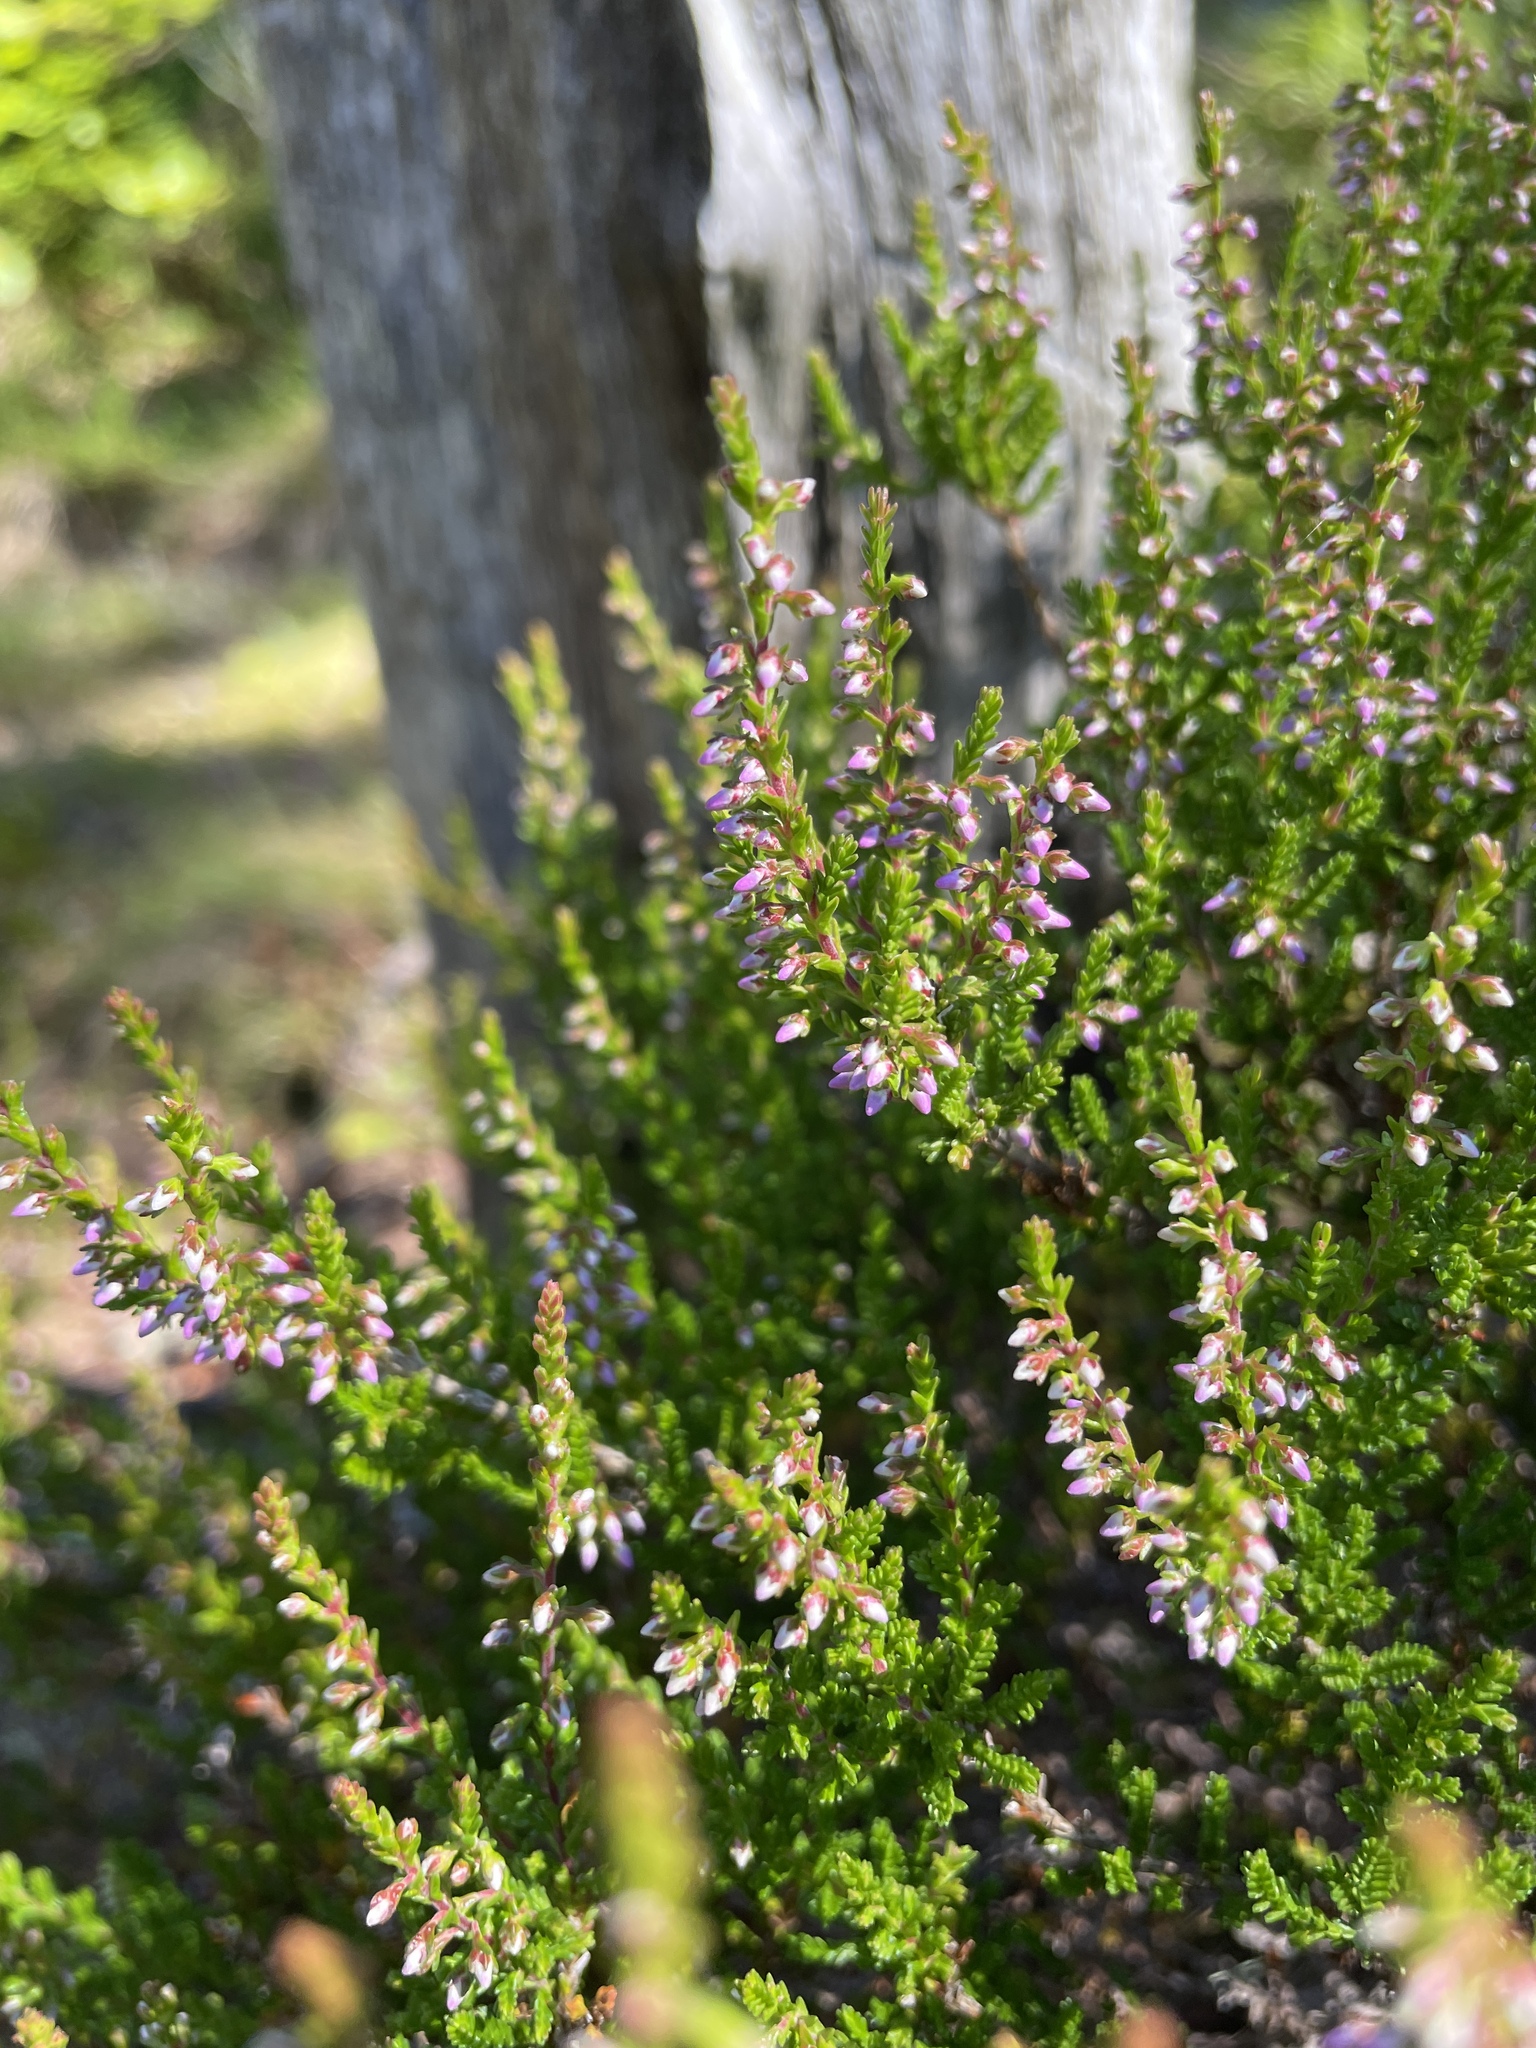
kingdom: Plantae
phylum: Tracheophyta
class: Magnoliopsida
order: Ericales
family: Ericaceae
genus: Calluna
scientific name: Calluna vulgaris
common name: Heather
